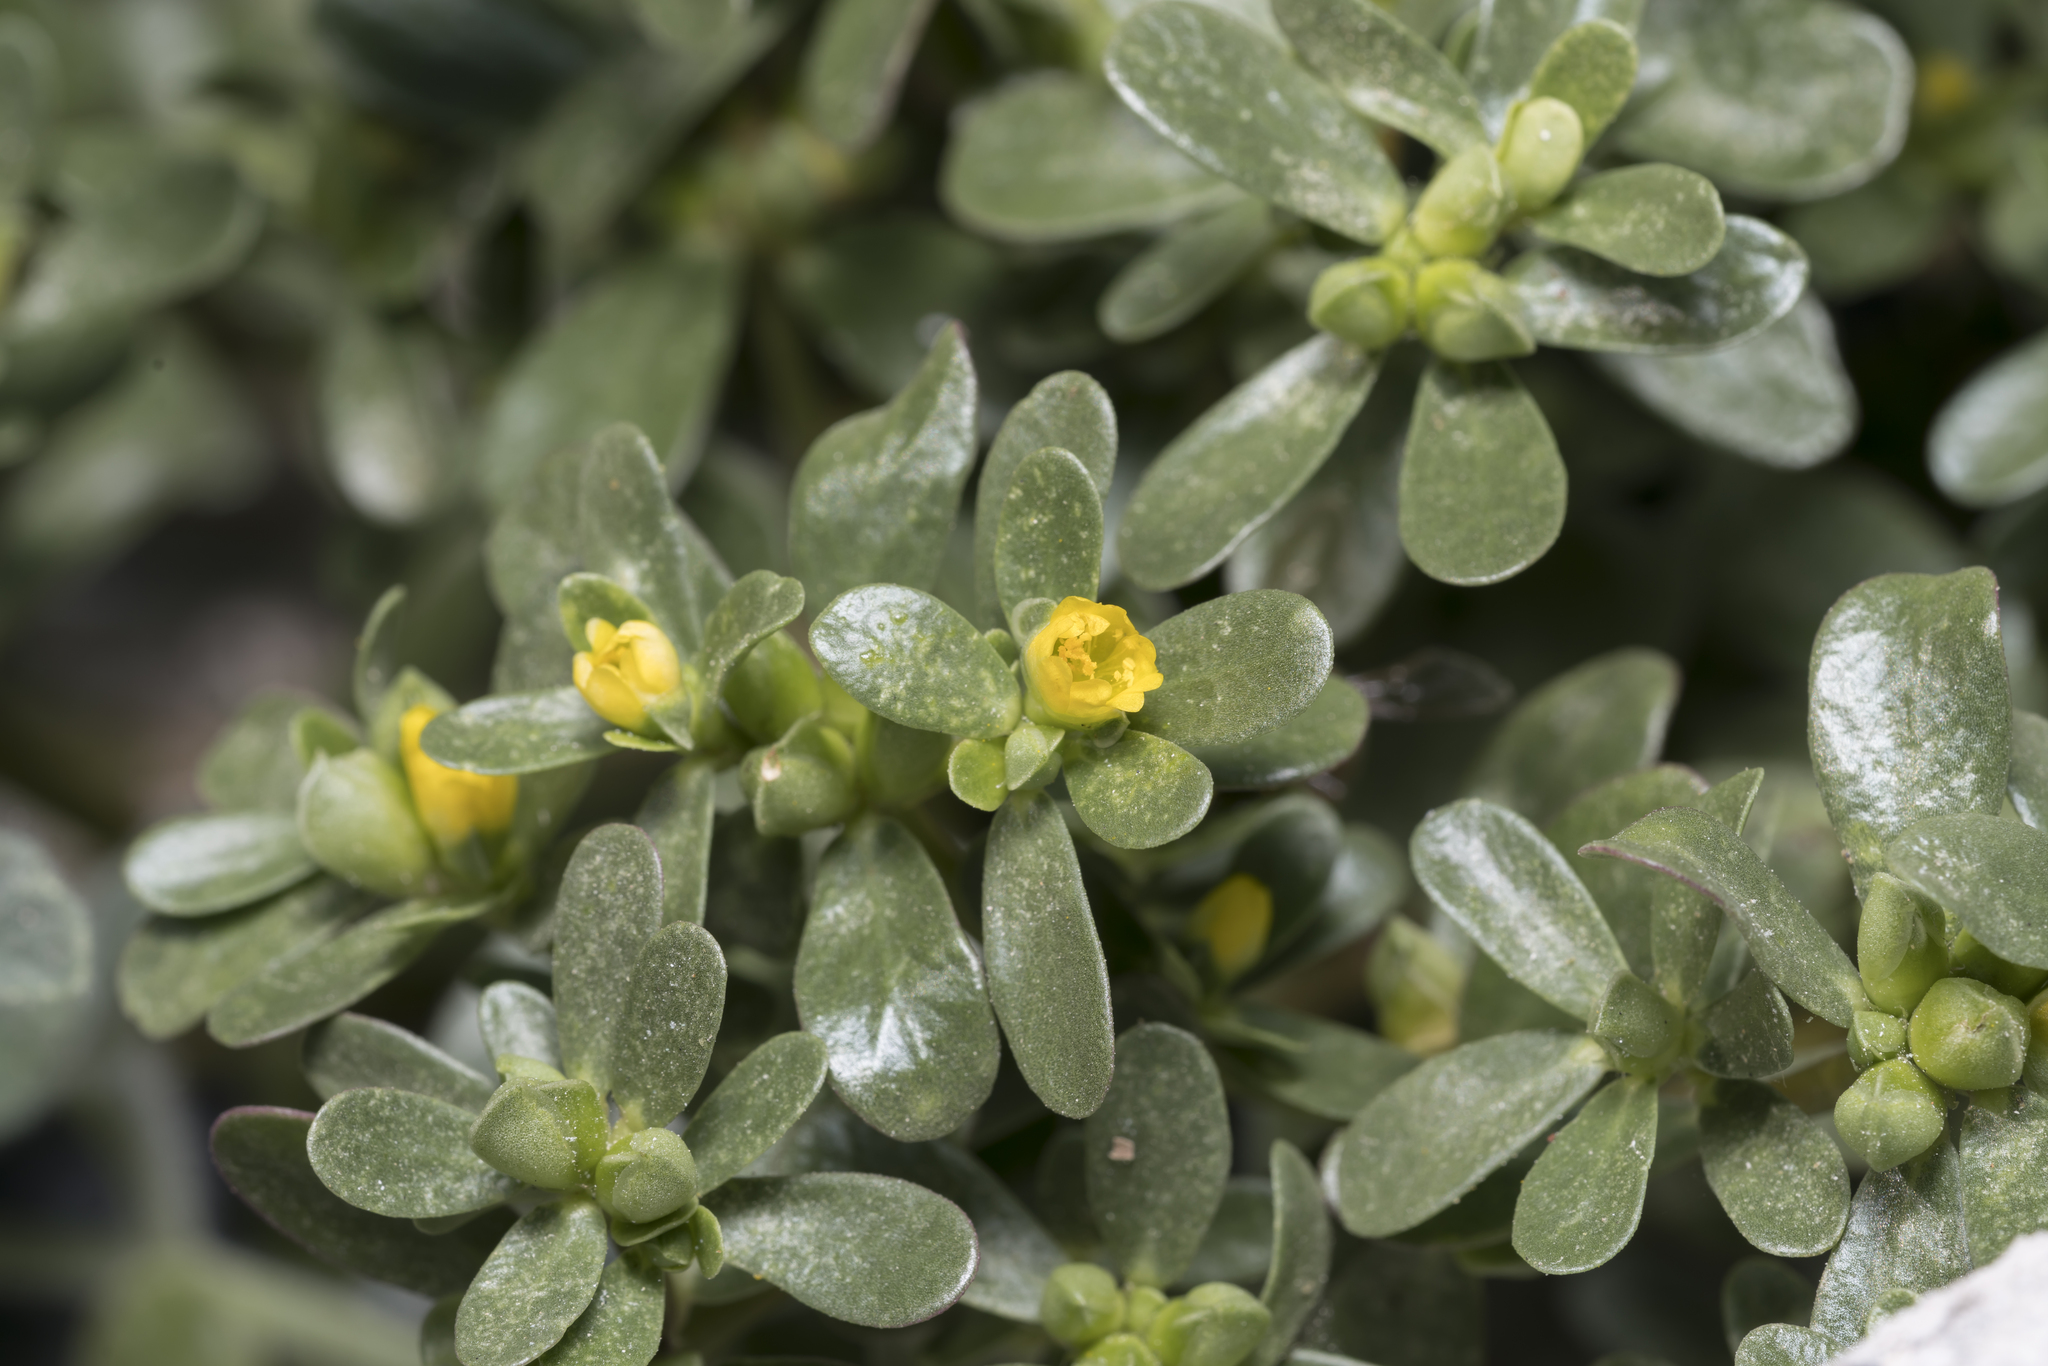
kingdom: Plantae
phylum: Tracheophyta
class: Magnoliopsida
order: Caryophyllales
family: Portulacaceae
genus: Portulaca
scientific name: Portulaca oleracea
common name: Common purslane
